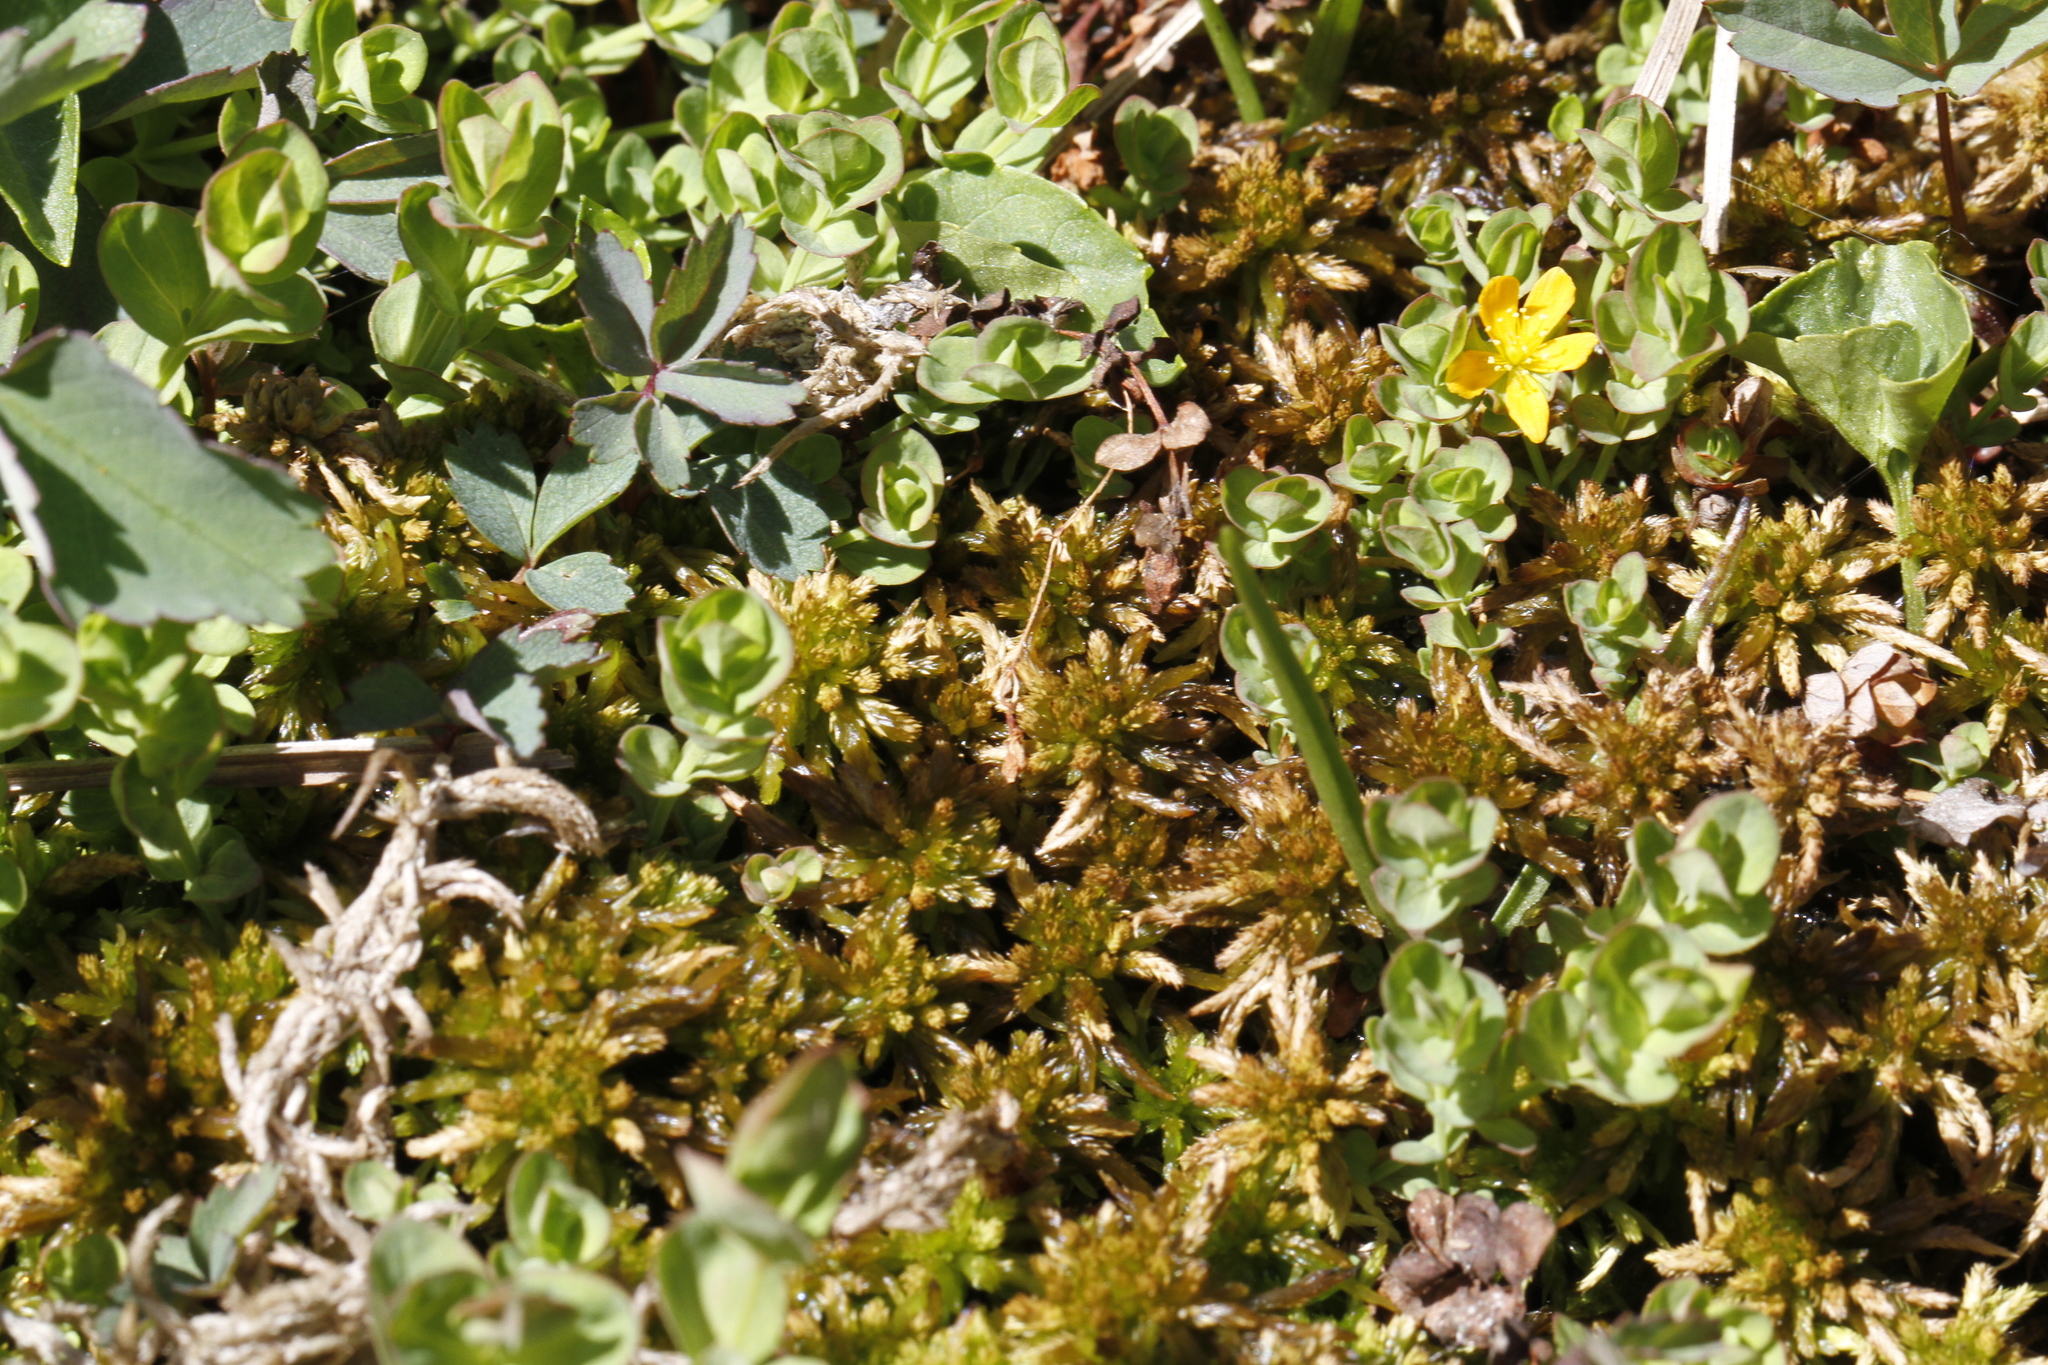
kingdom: Plantae
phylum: Tracheophyta
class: Magnoliopsida
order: Malpighiales
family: Hypericaceae
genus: Hypericum
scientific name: Hypericum anagalloides
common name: Bog st. john's-wort
